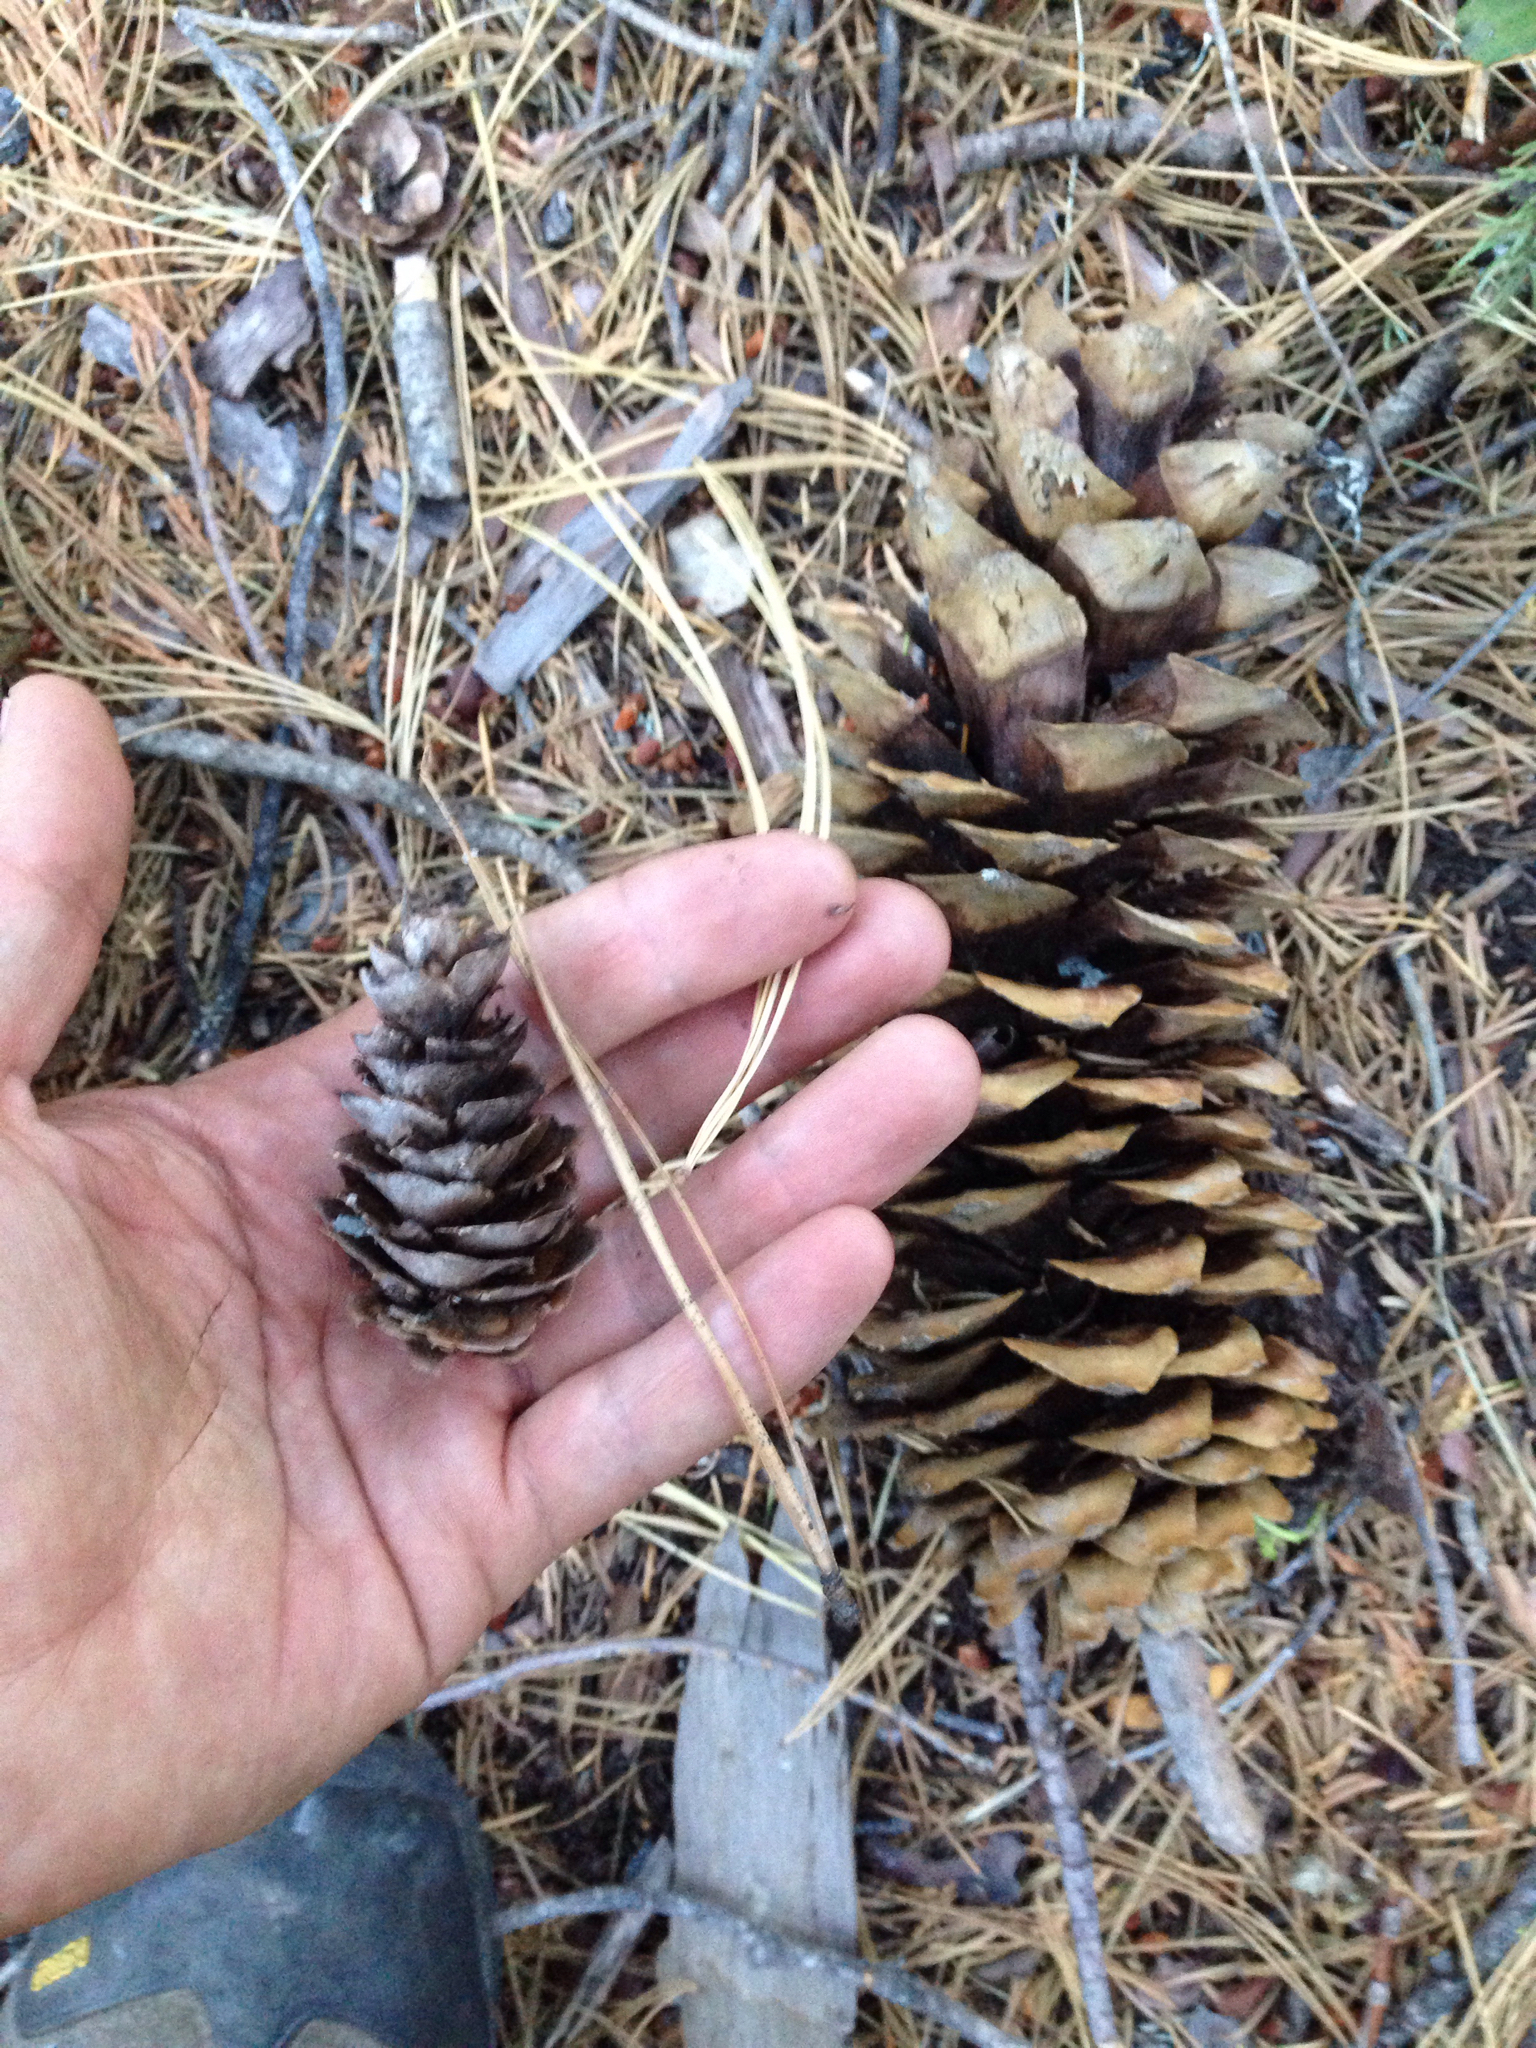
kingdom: Plantae
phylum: Tracheophyta
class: Pinopsida
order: Pinales
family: Pinaceae
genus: Tsuga
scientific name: Tsuga mertensiana
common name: Mountain hemlock
